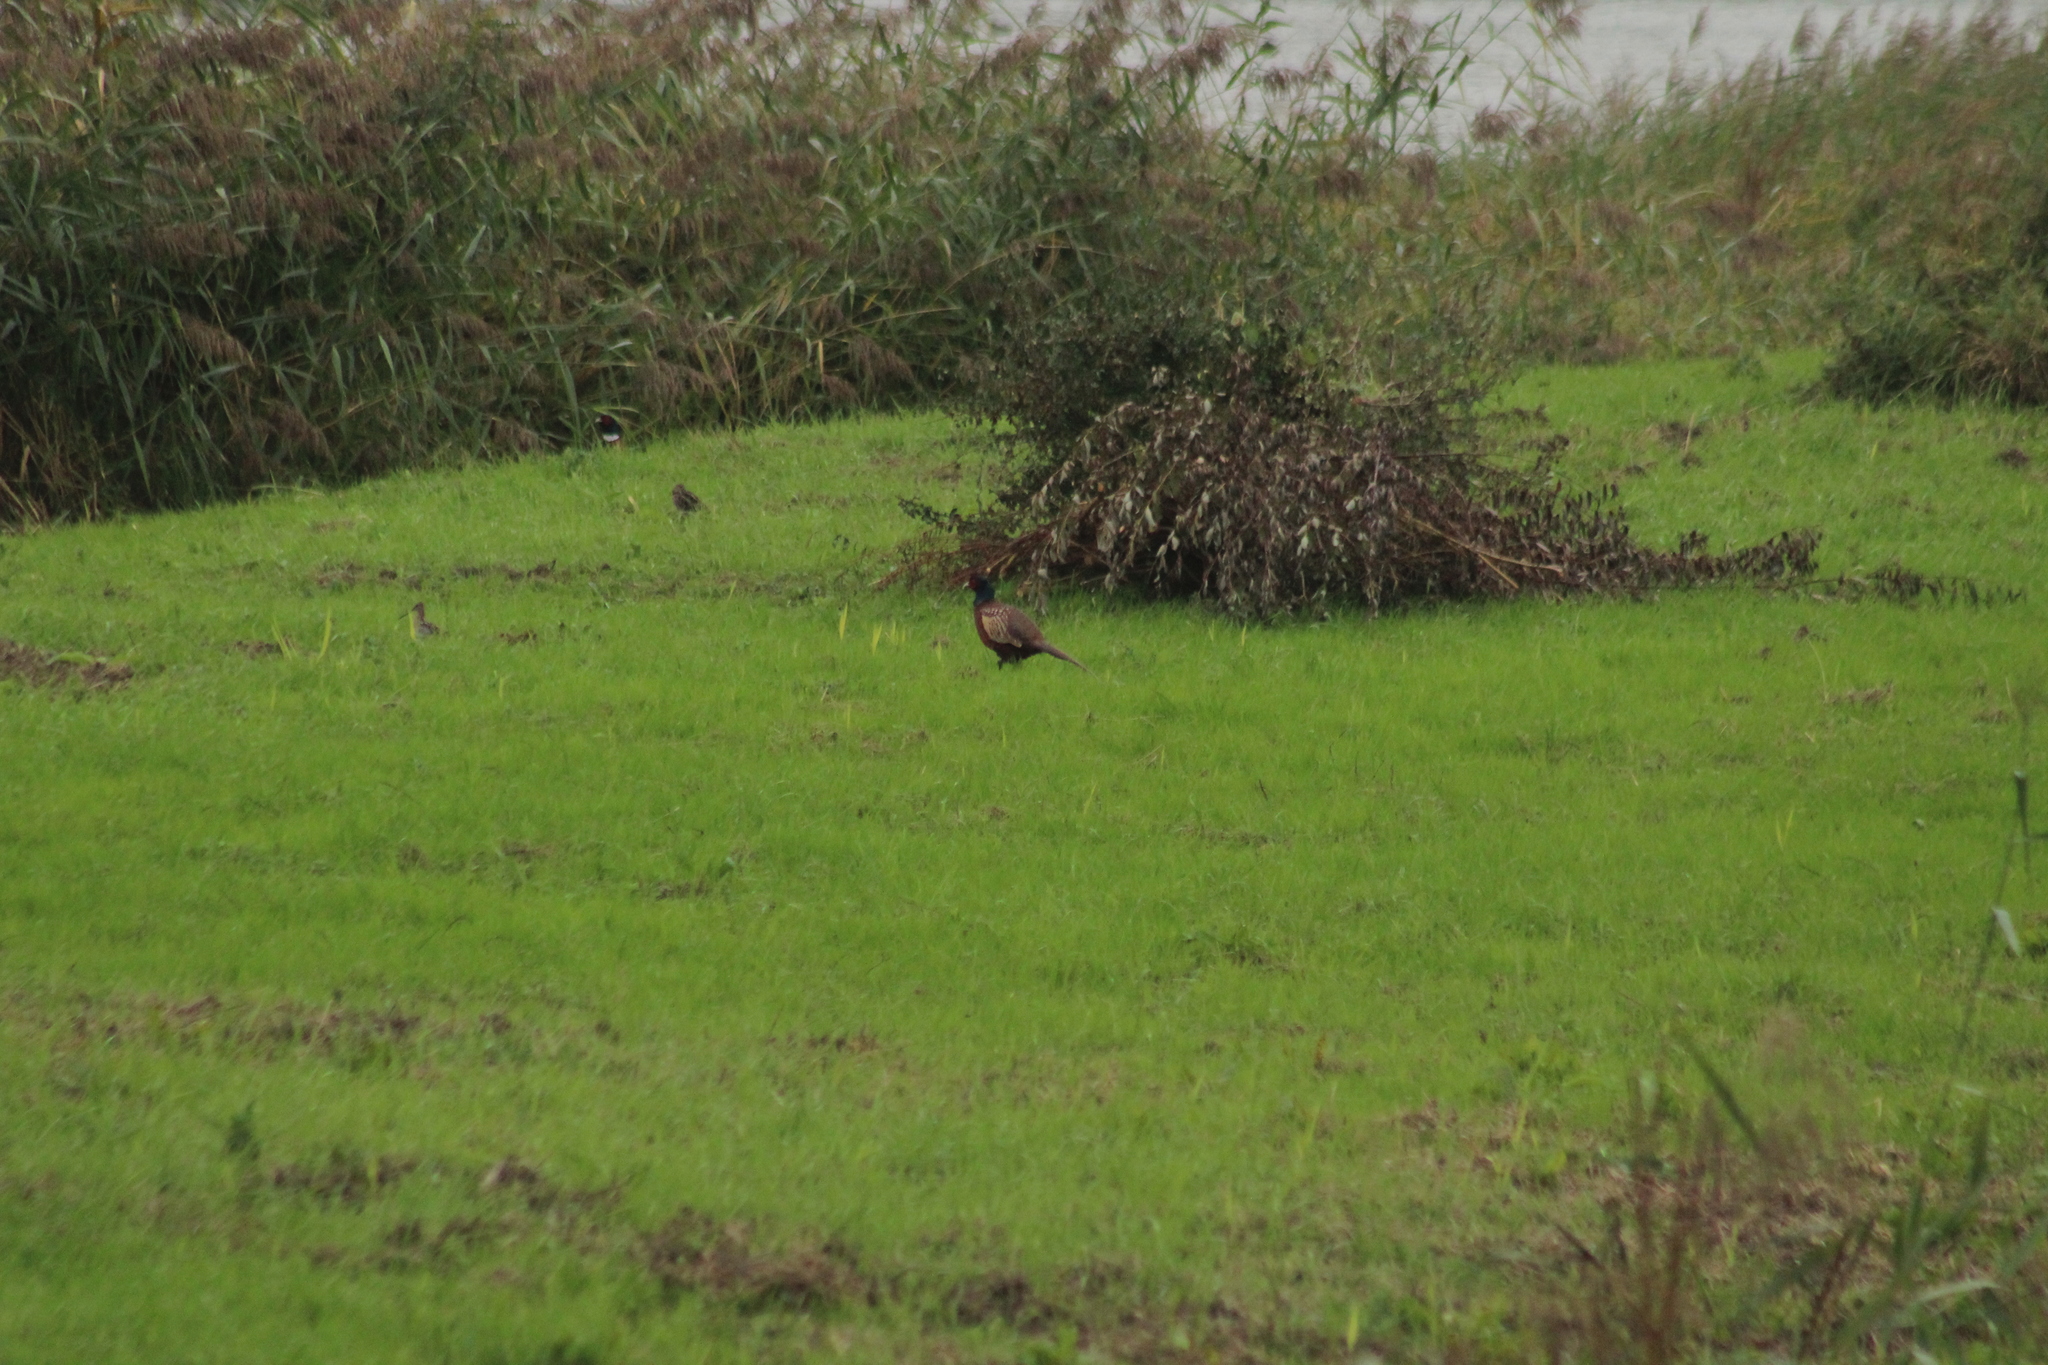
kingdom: Animalia
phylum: Chordata
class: Aves
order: Galliformes
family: Phasianidae
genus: Phasianus
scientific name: Phasianus colchicus
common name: Common pheasant
